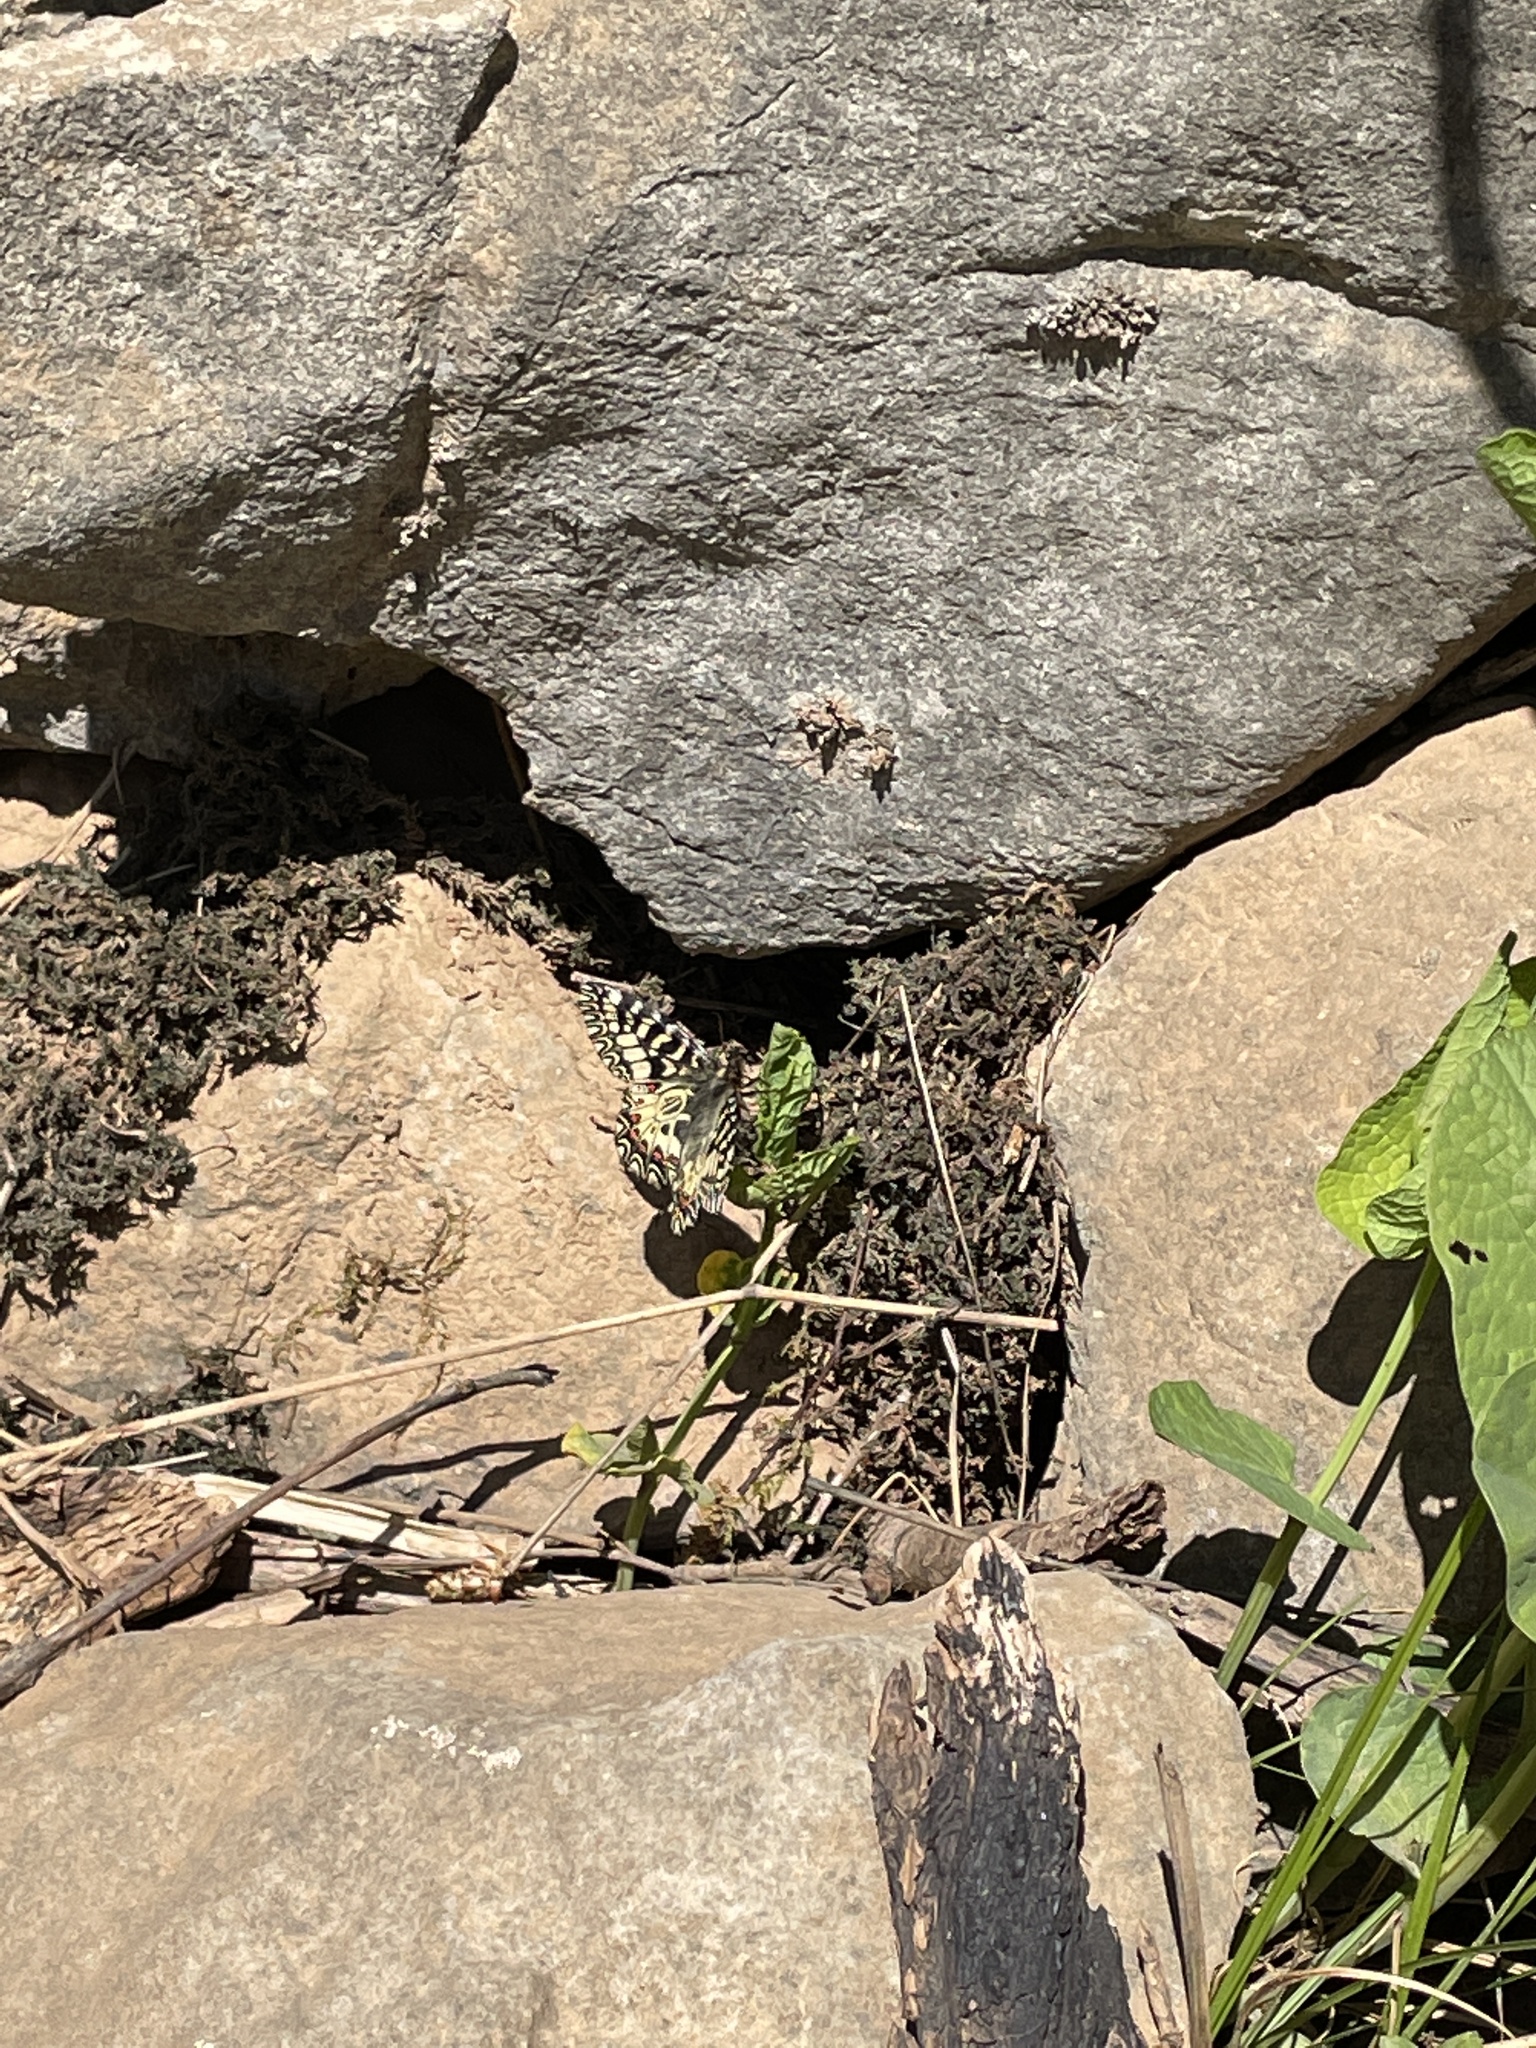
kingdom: Animalia
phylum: Arthropoda
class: Insecta
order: Lepidoptera
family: Papilionidae
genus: Zerynthia
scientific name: Zerynthia polyxena
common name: Southern festoon
